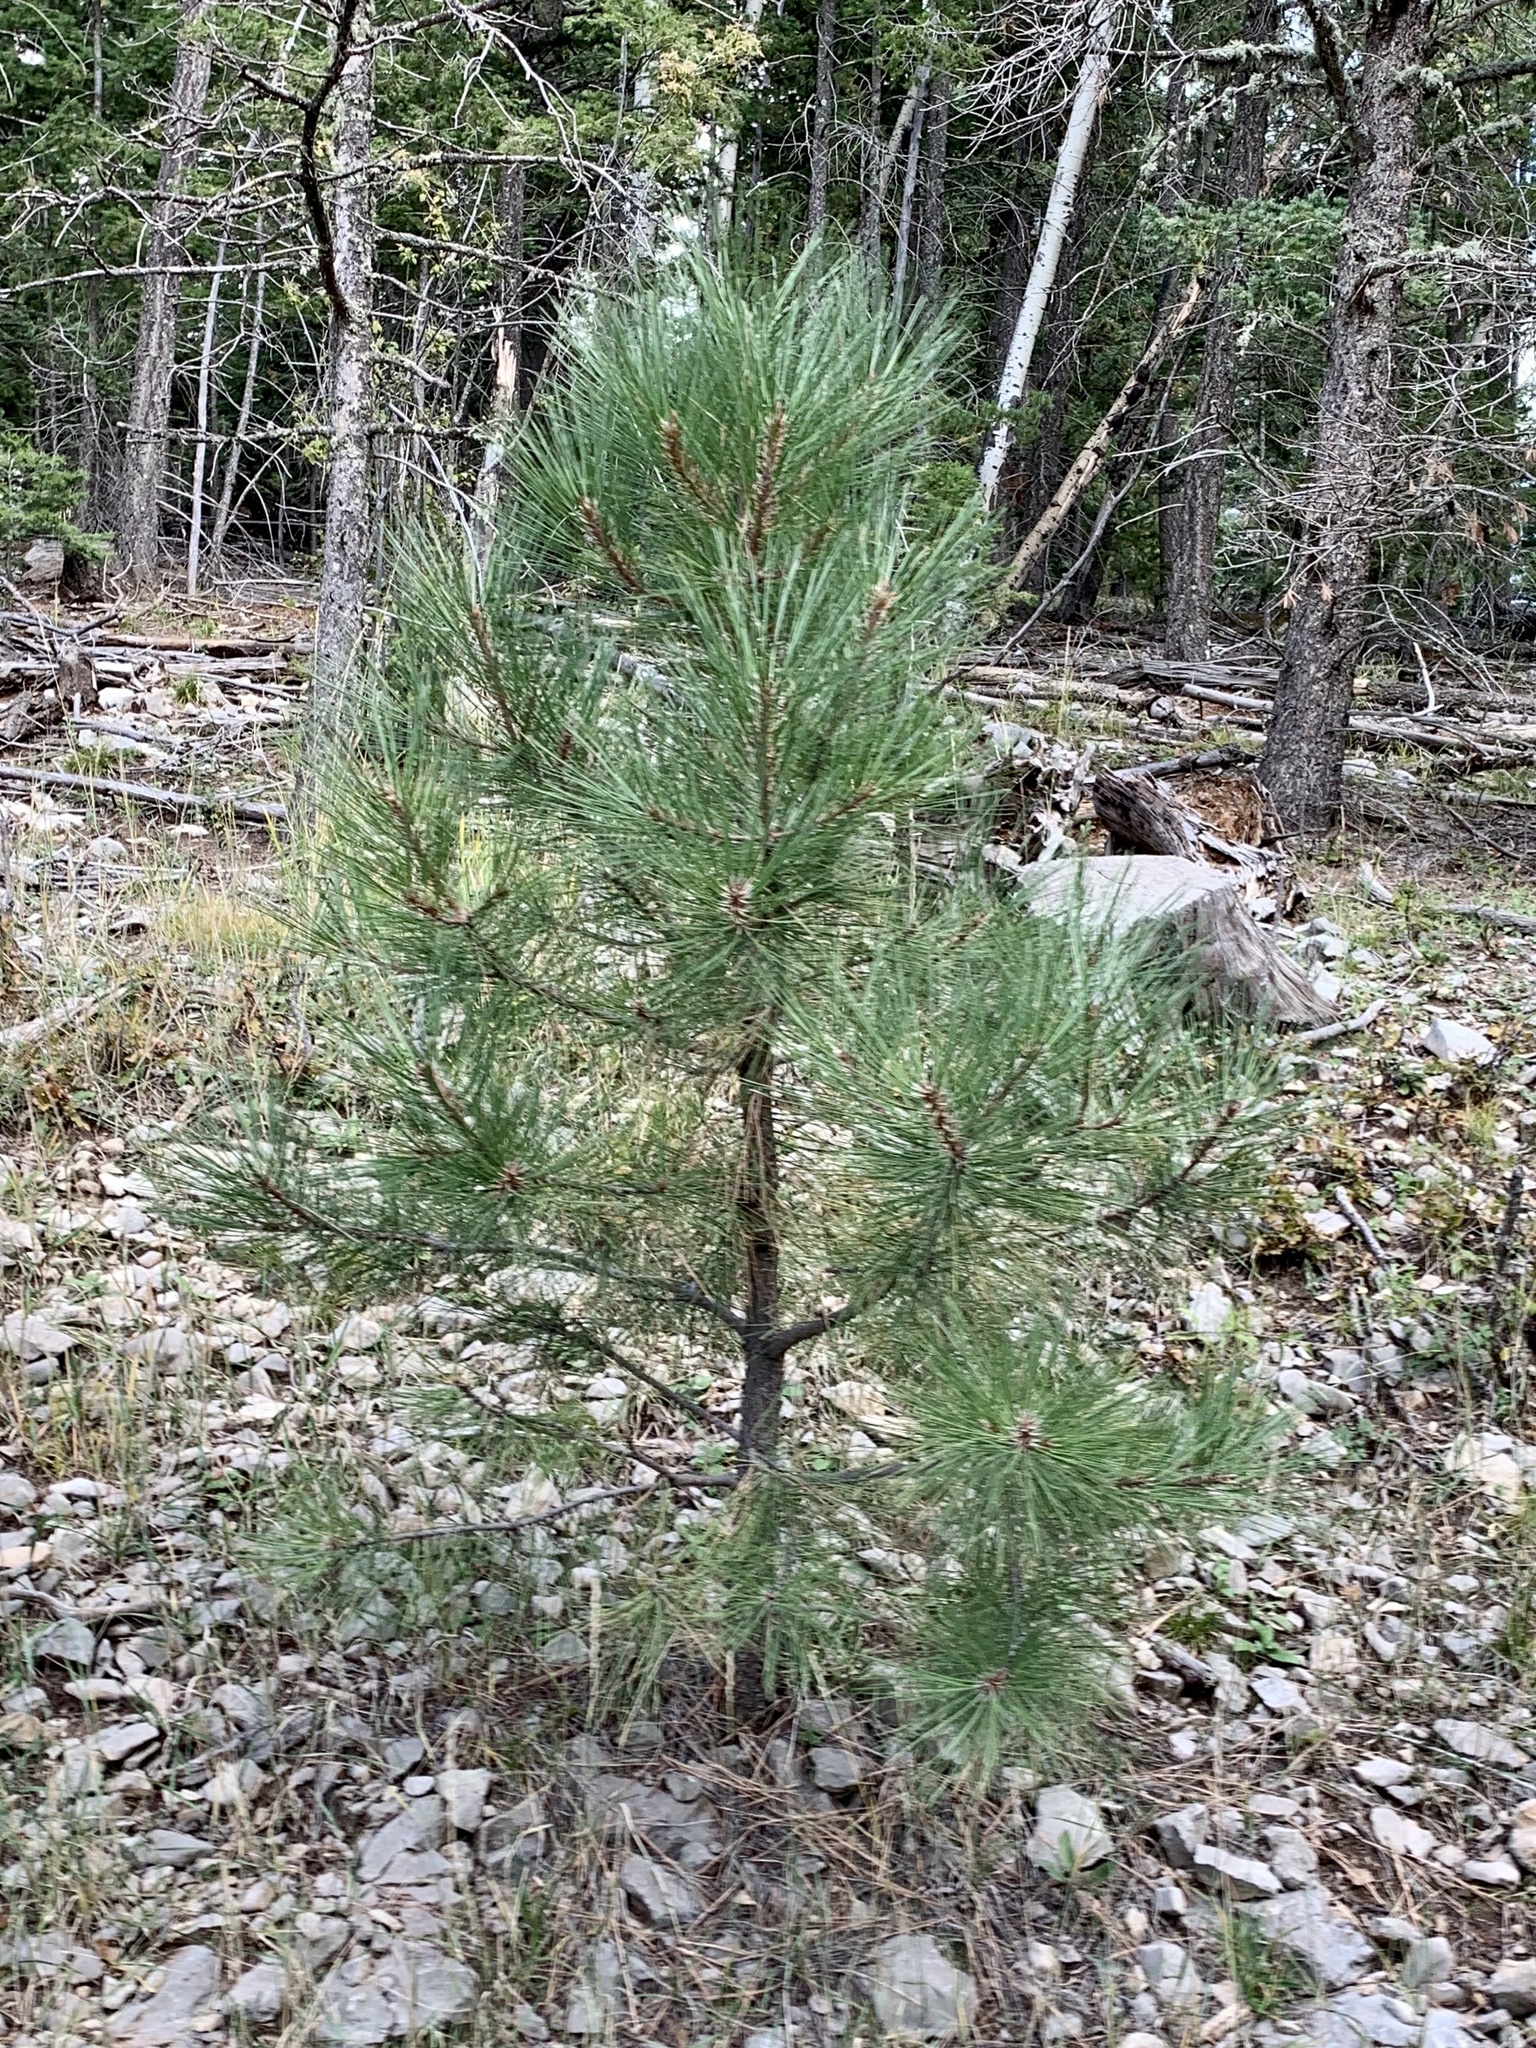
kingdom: Plantae
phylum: Tracheophyta
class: Pinopsida
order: Pinales
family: Pinaceae
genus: Pinus
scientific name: Pinus ponderosa
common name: Western yellow-pine
